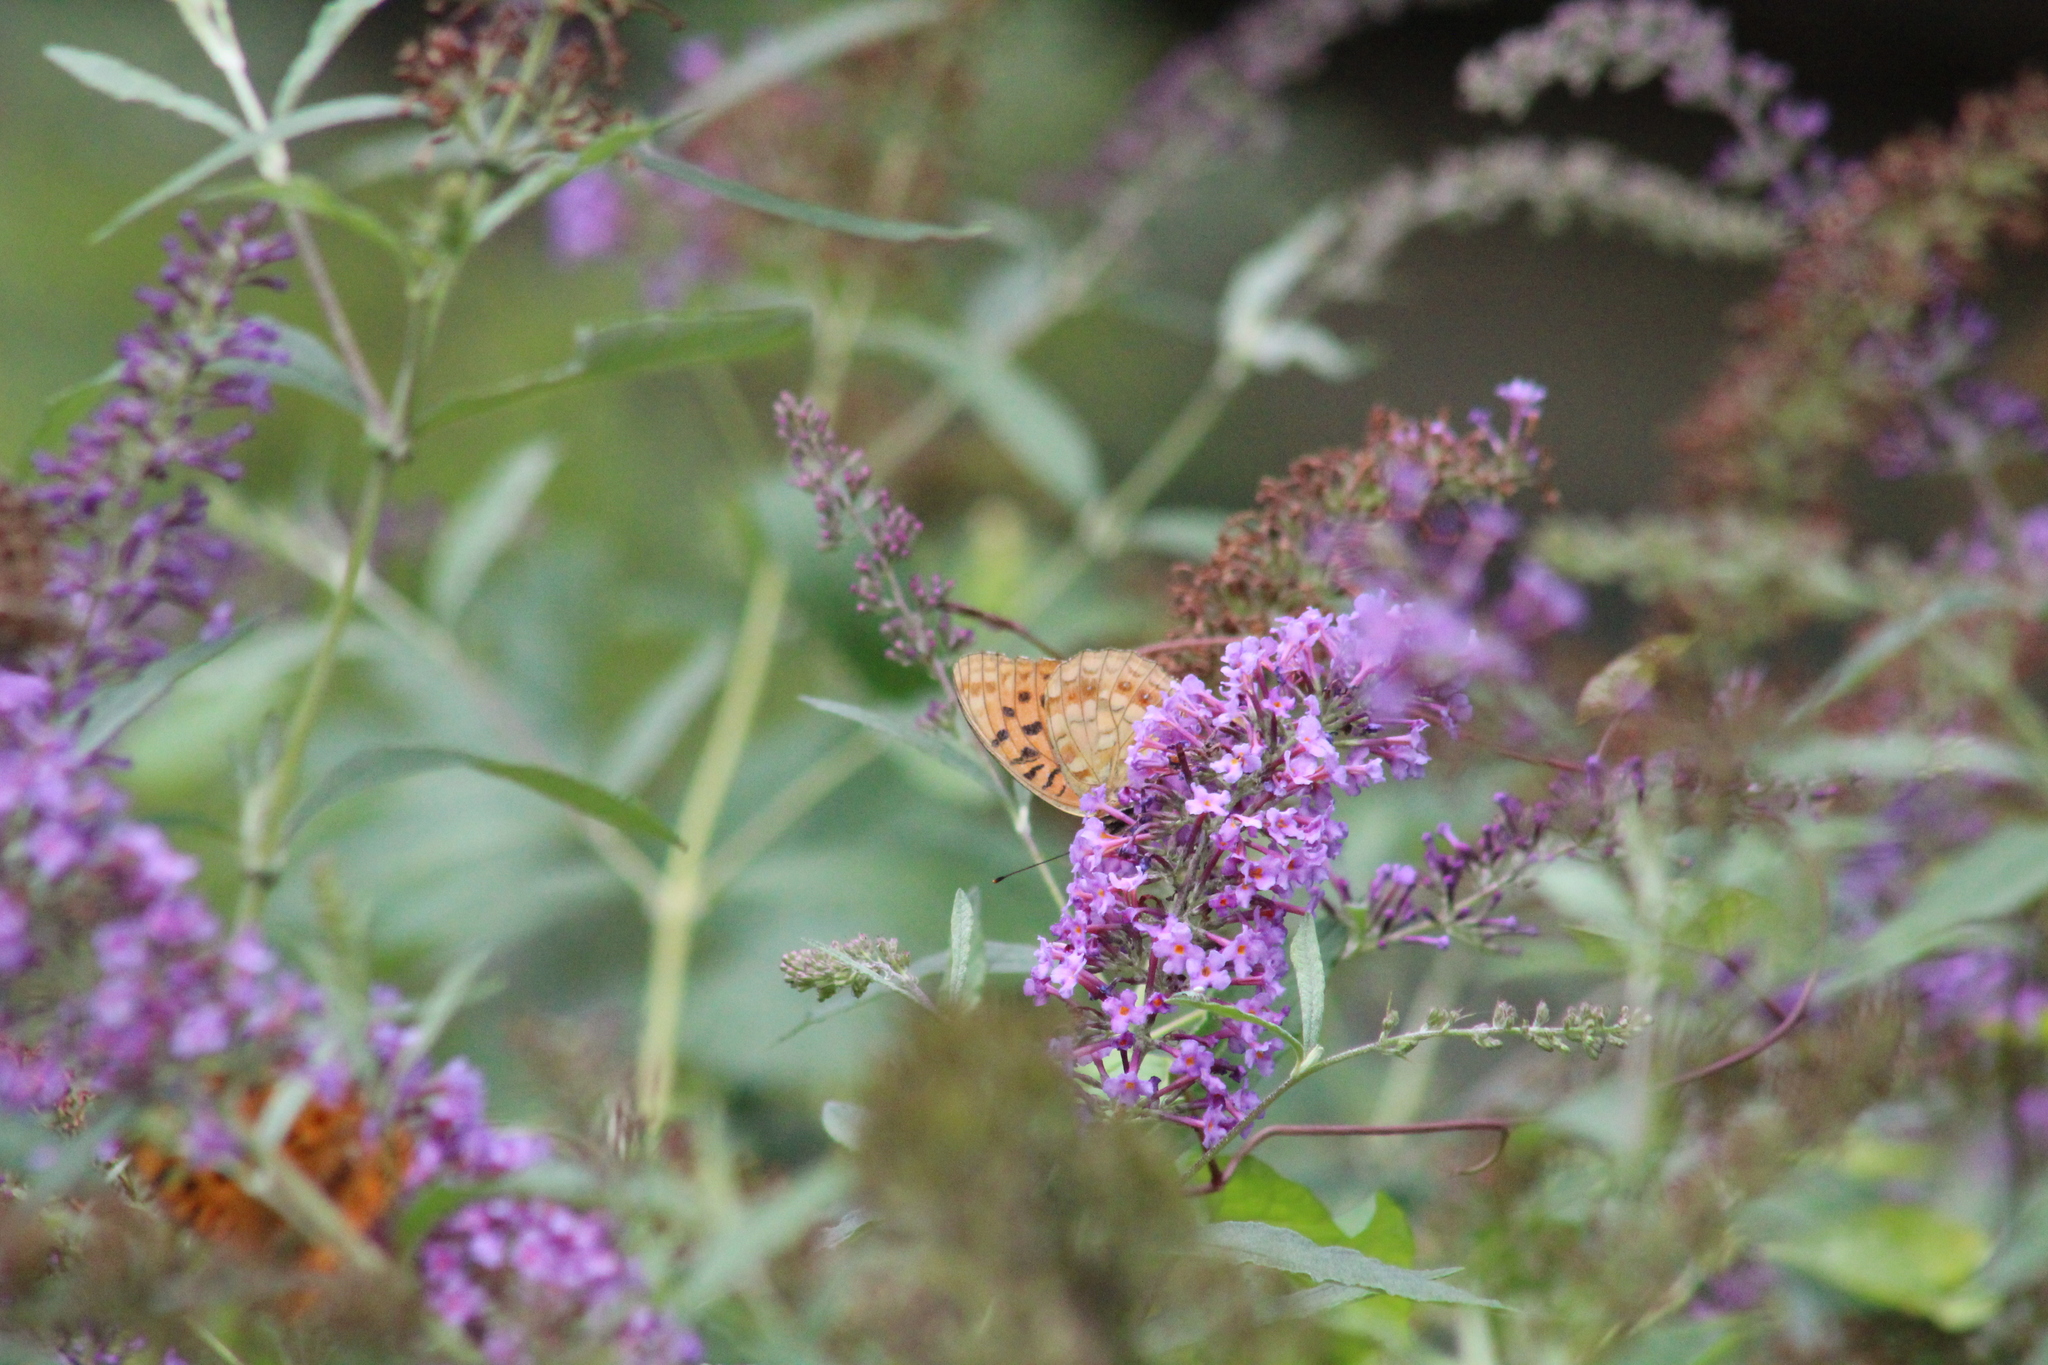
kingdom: Animalia
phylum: Arthropoda
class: Insecta
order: Lepidoptera
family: Nymphalidae
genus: Fabriciana
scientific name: Fabriciana adippe
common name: High brown fritillary
